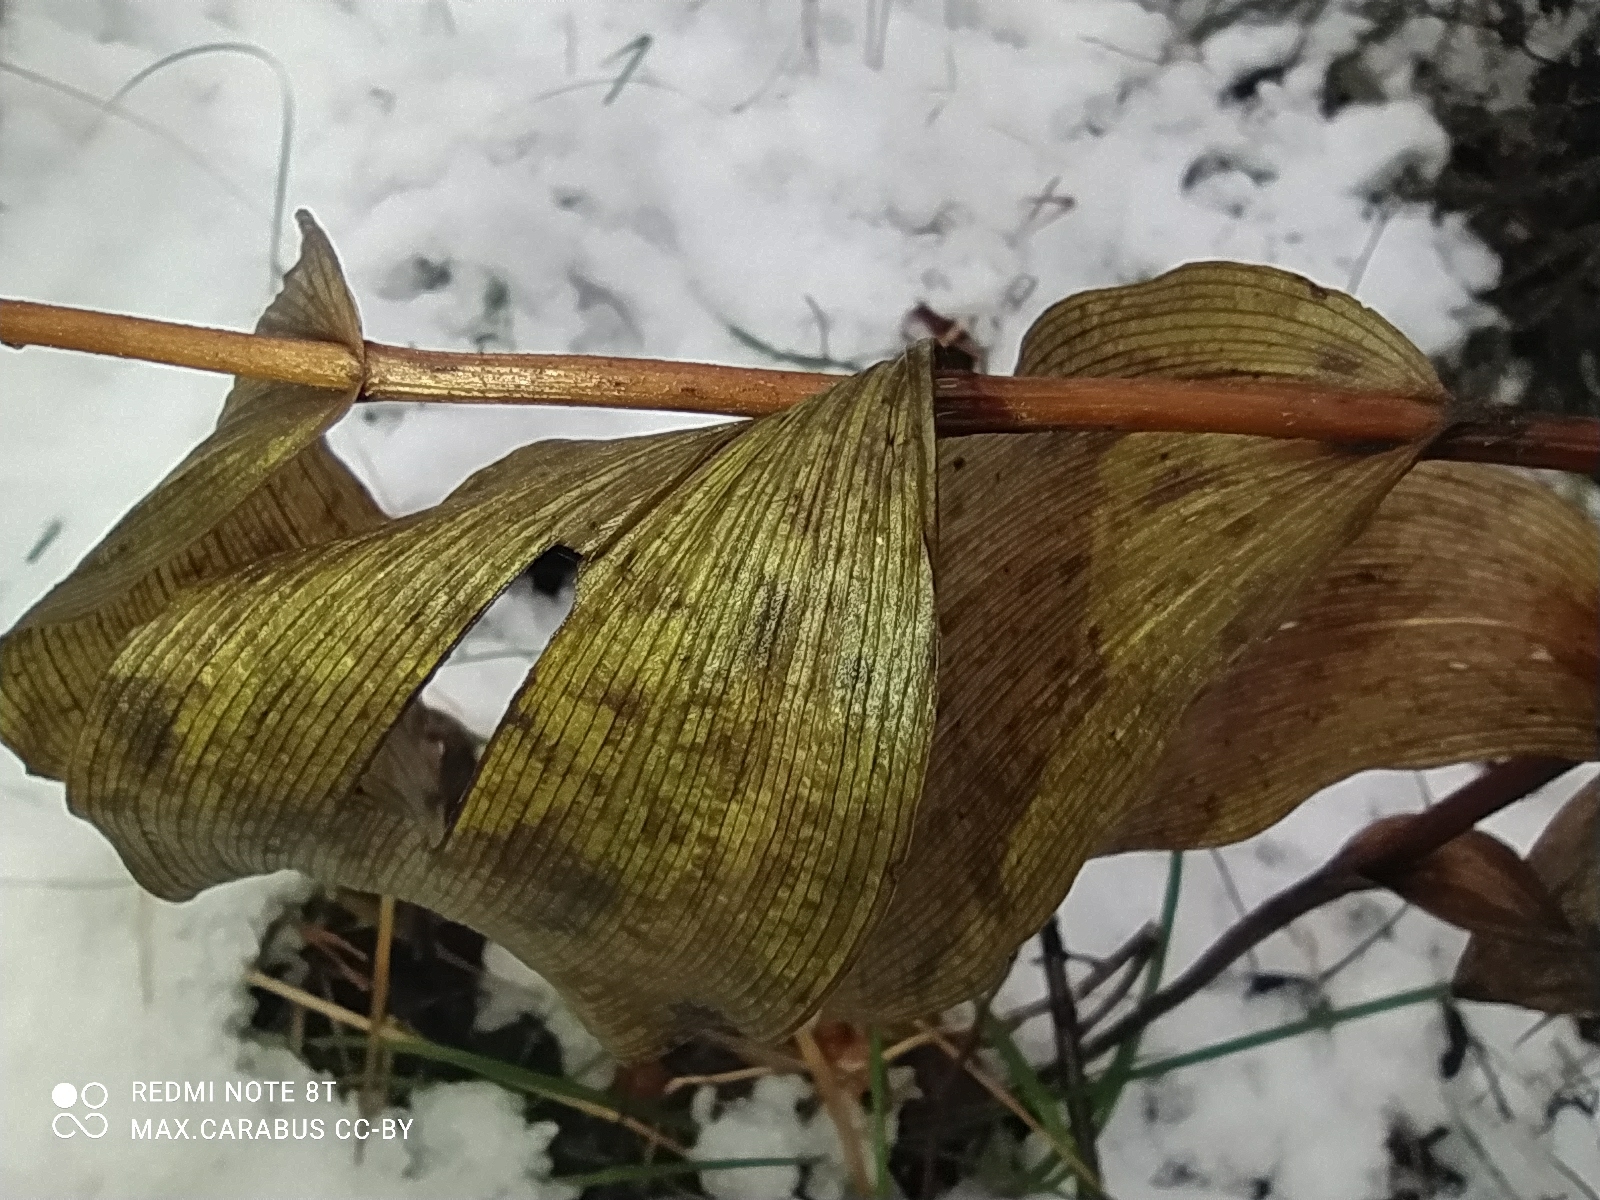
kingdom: Plantae
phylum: Tracheophyta
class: Liliopsida
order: Asparagales
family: Orchidaceae
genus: Epipactis
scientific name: Epipactis helleborine
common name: Broad-leaved helleborine
